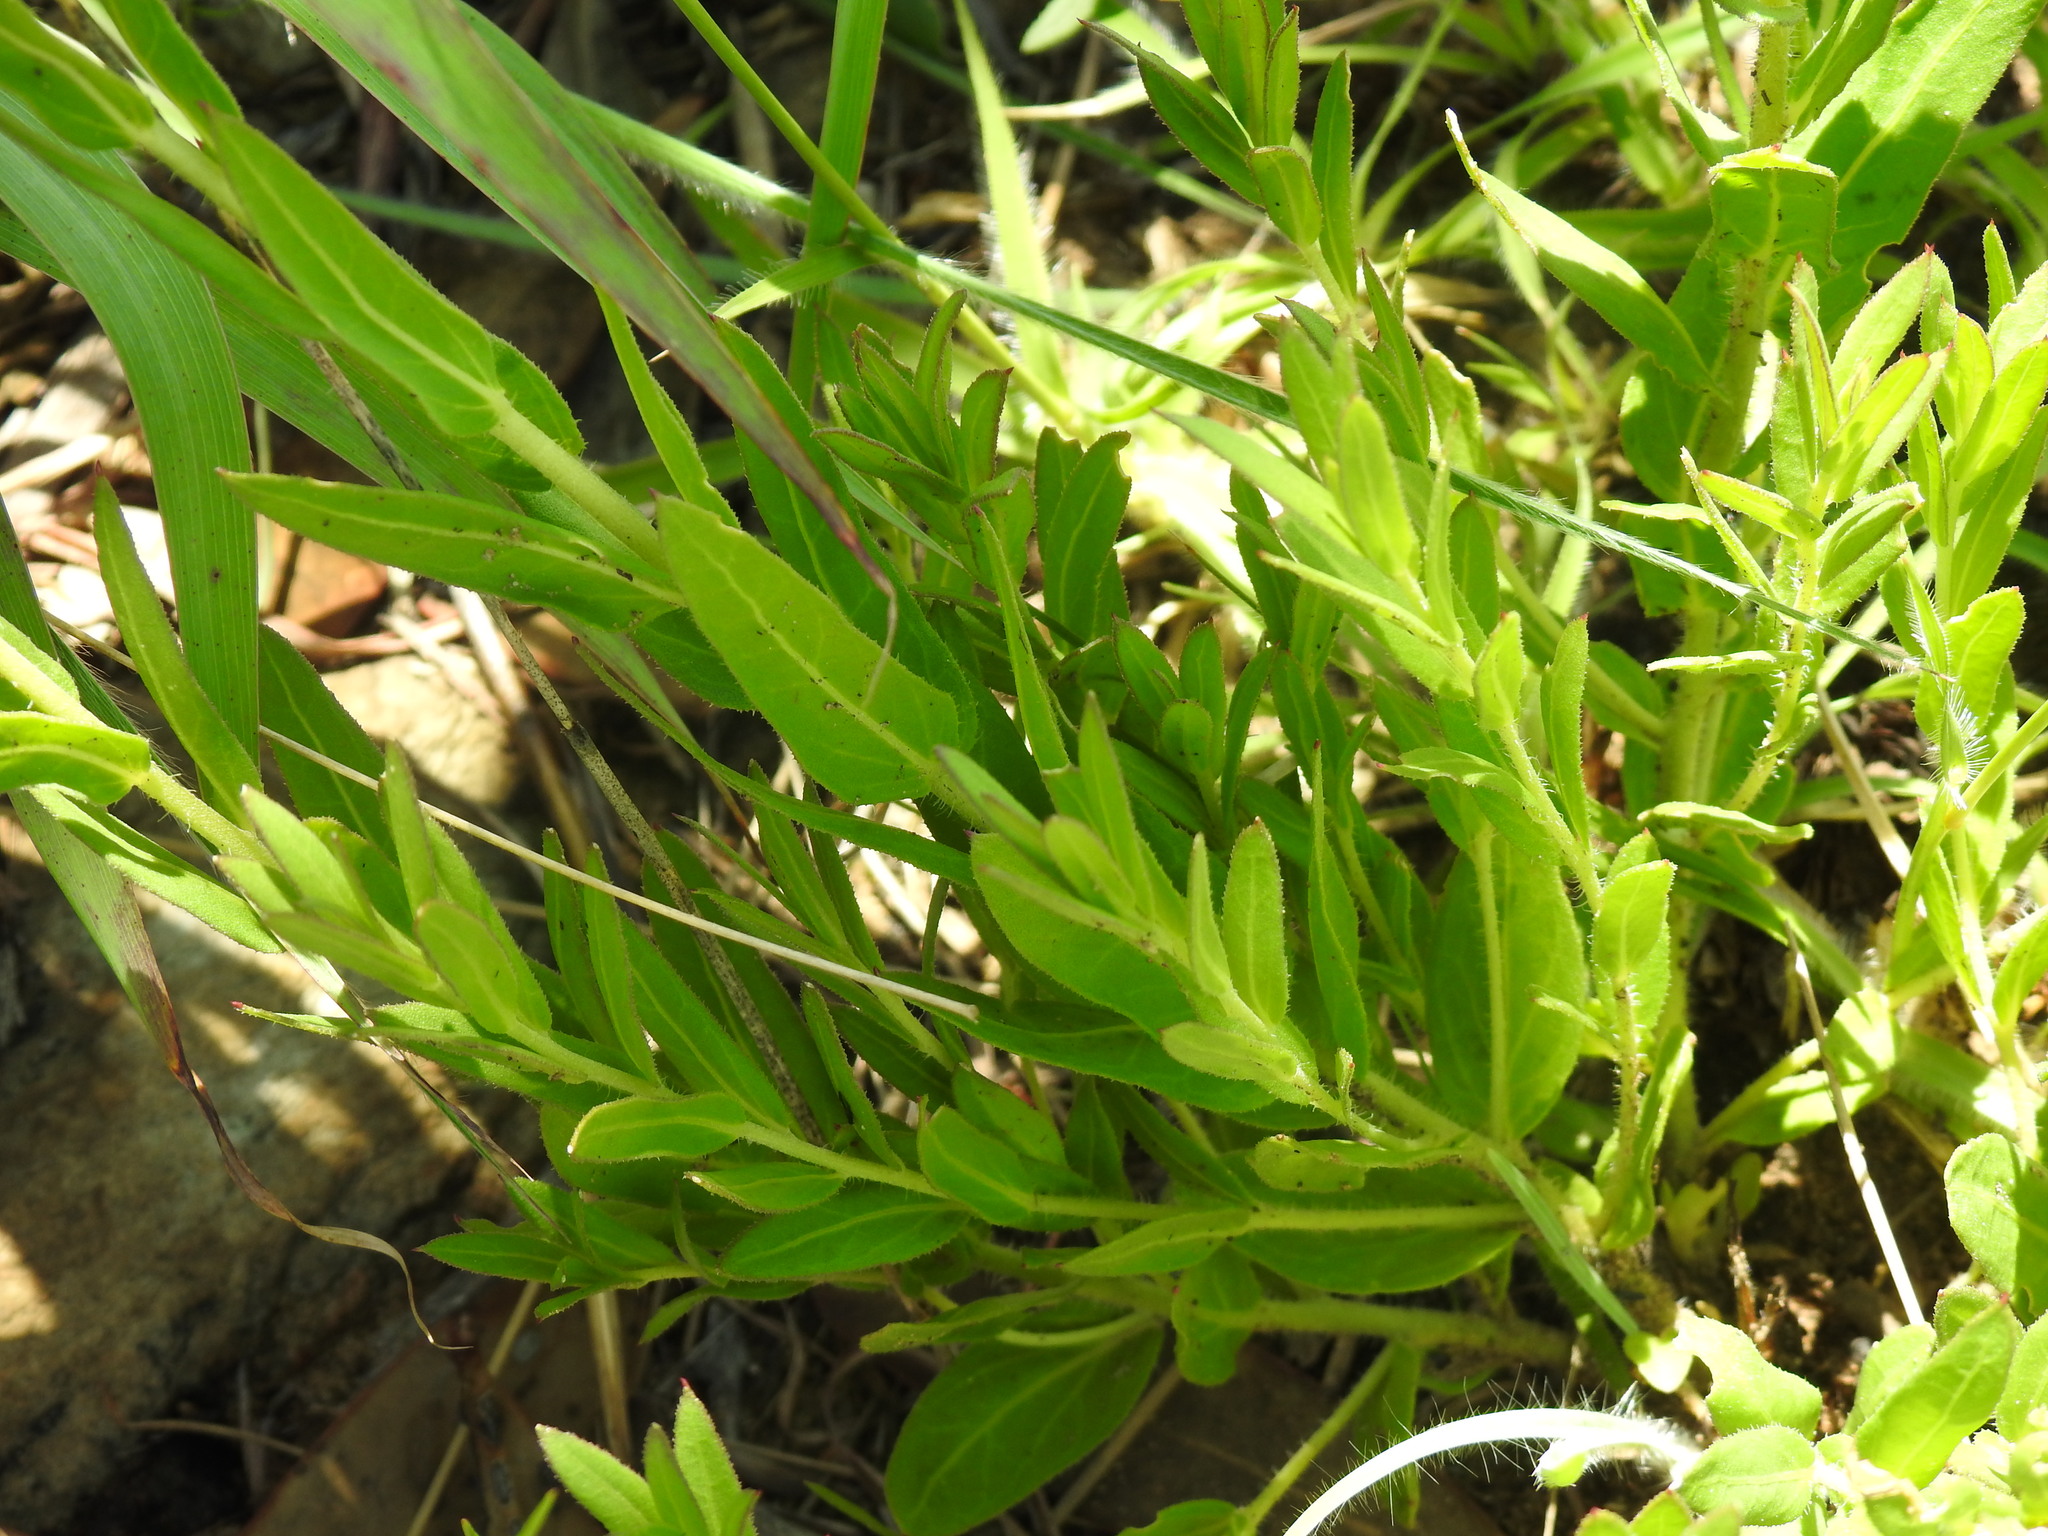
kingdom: Plantae
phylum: Tracheophyta
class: Magnoliopsida
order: Asterales
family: Asteraceae
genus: Pseudopegolettia
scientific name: Pseudopegolettia tenella
